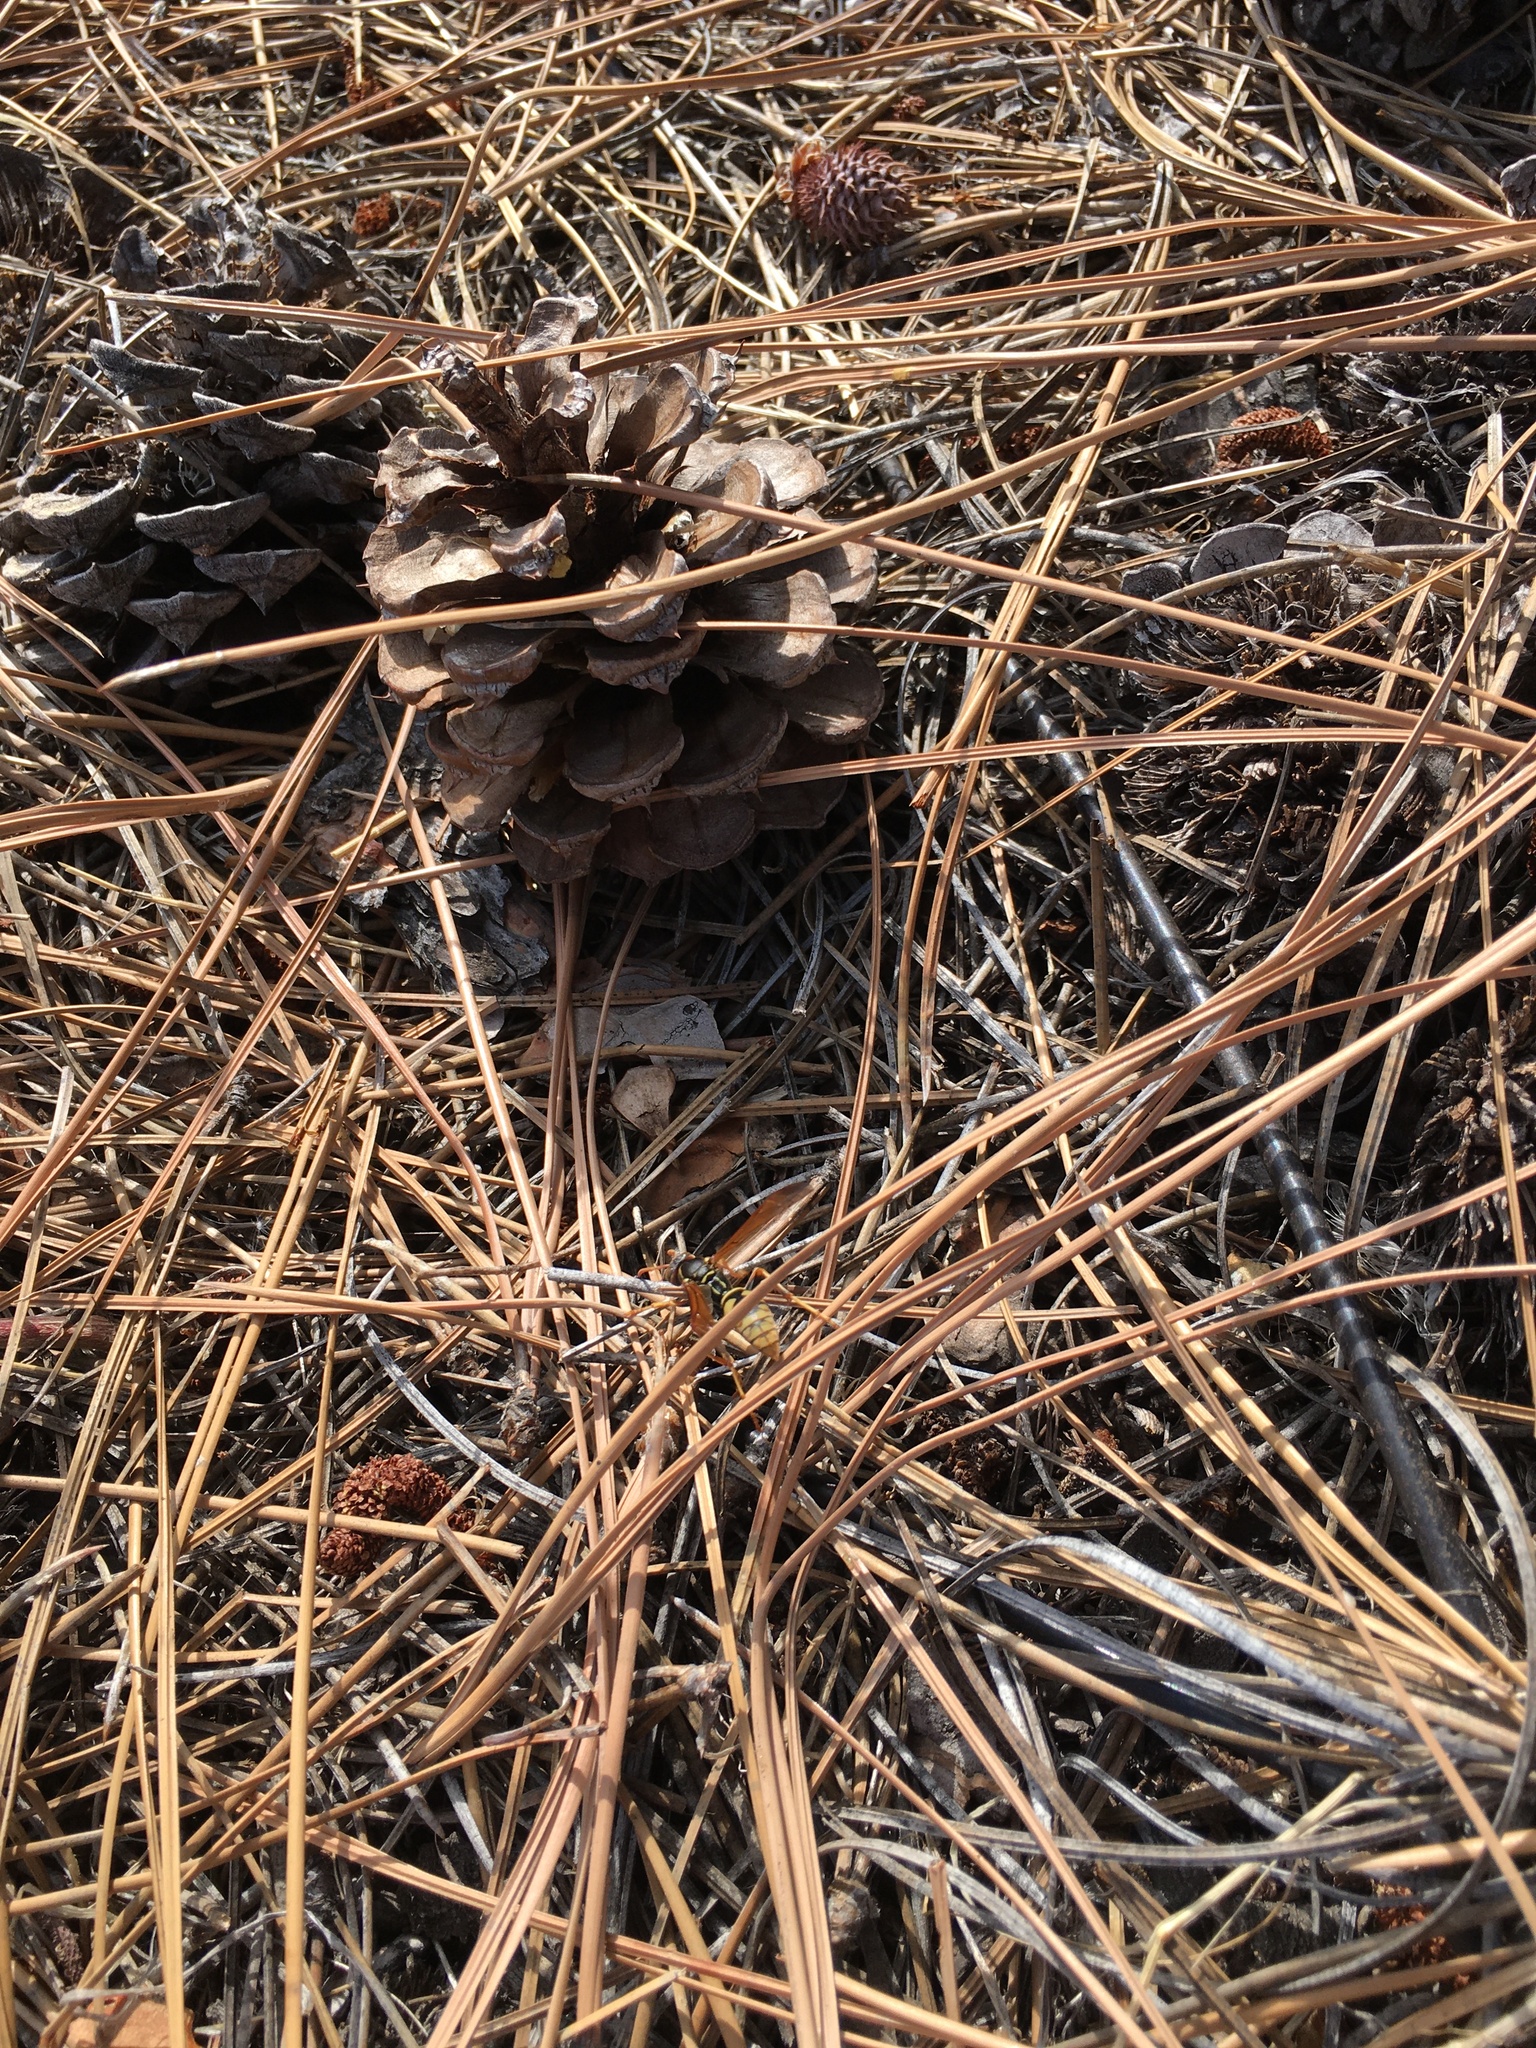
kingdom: Animalia
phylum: Arthropoda
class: Insecta
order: Hymenoptera
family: Eumenidae
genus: Polistes
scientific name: Polistes aurifer
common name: Paper wasp
